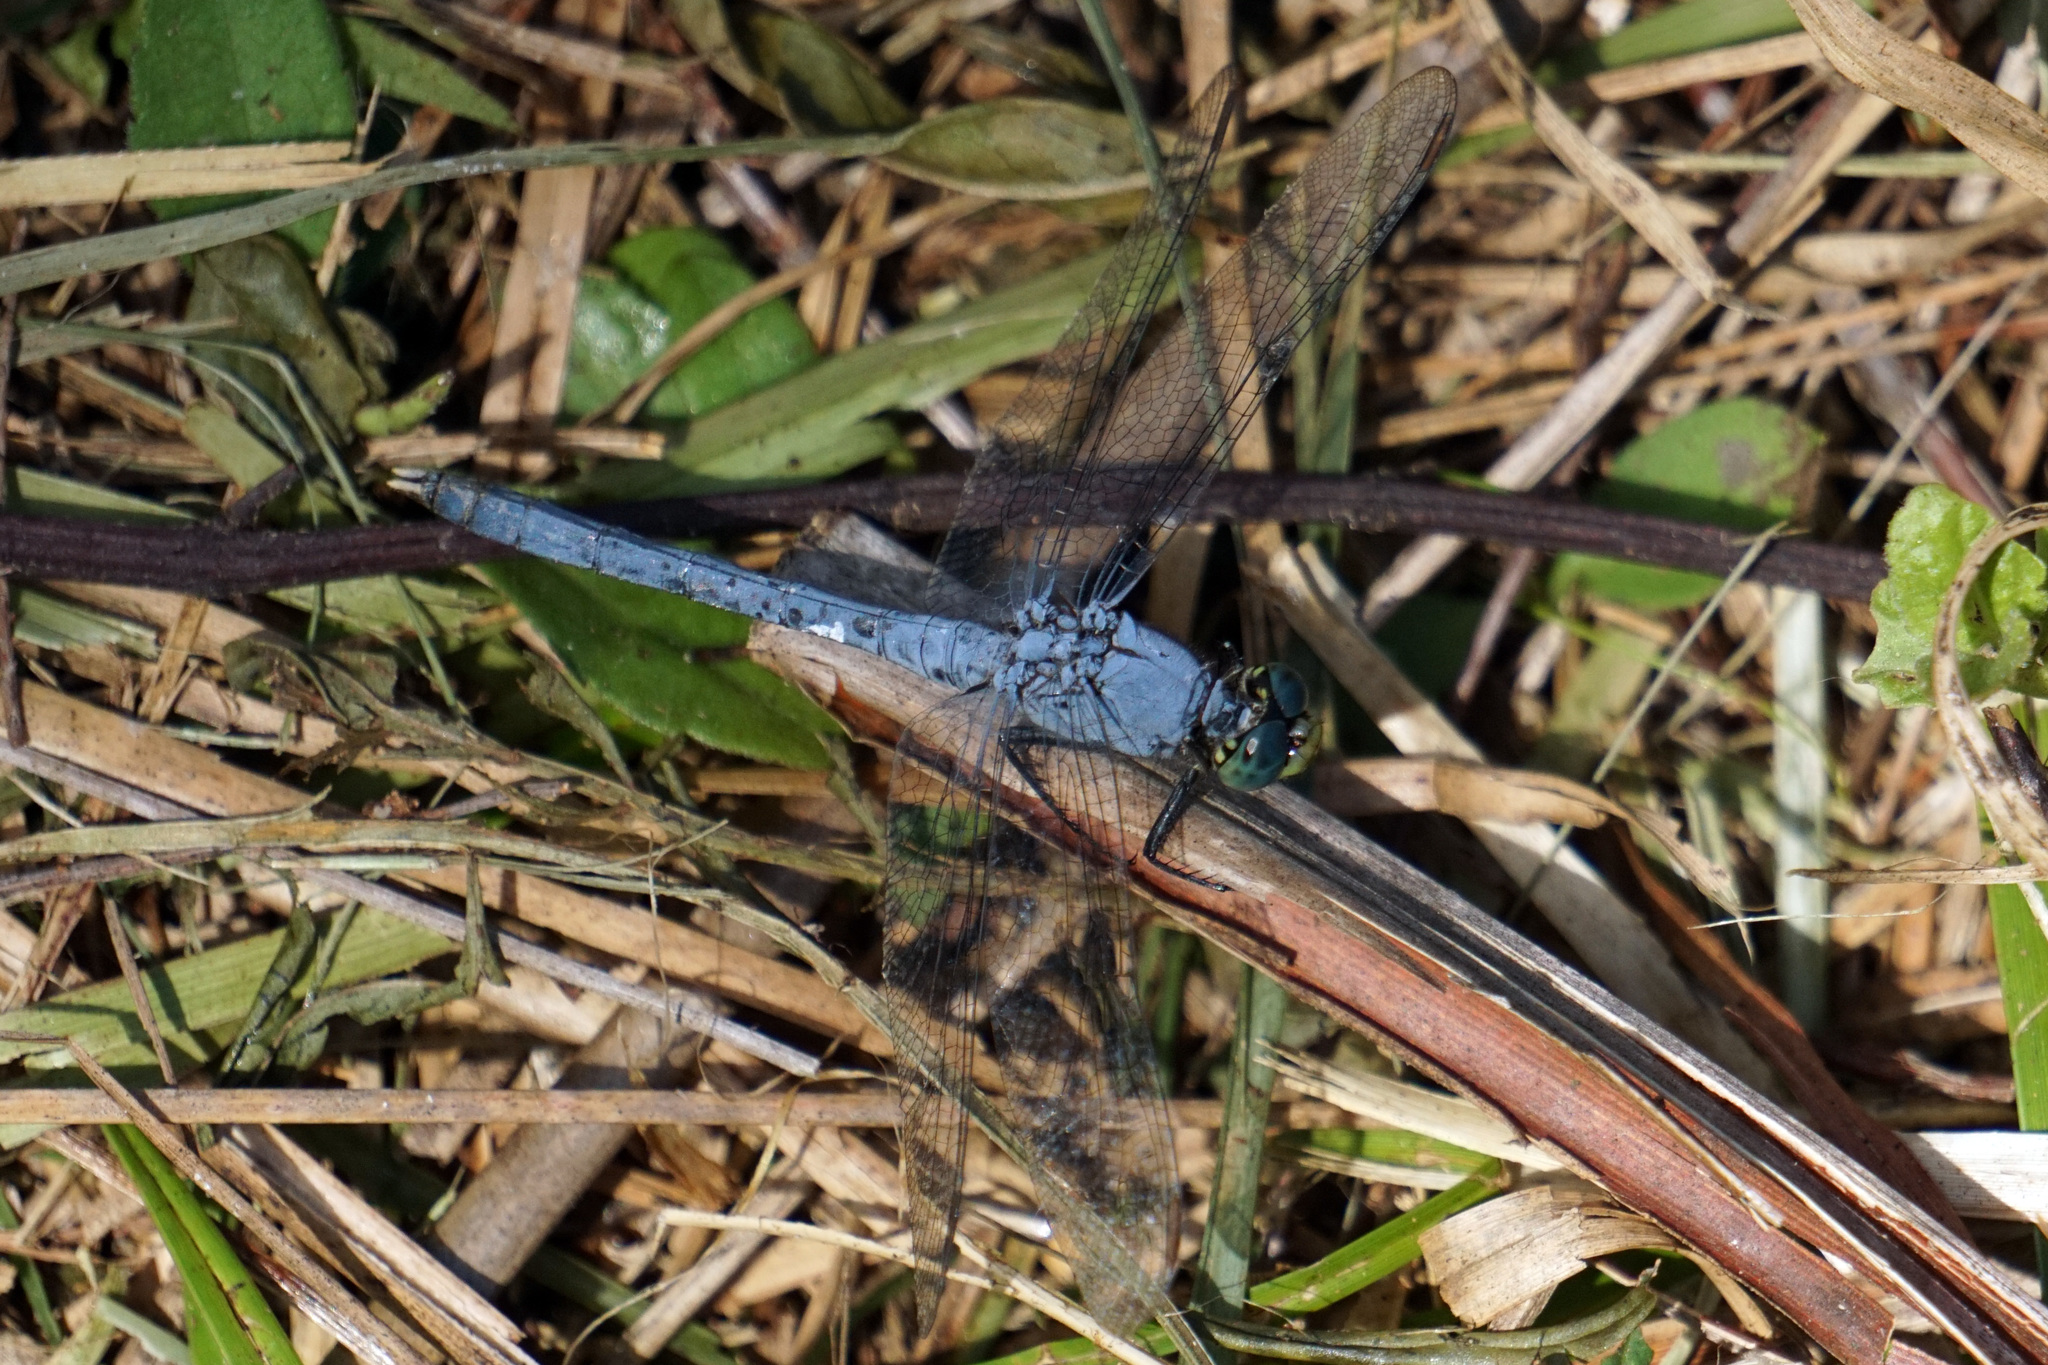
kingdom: Animalia
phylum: Arthropoda
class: Insecta
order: Odonata
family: Libellulidae
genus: Erythemis
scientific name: Erythemis simplicicollis
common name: Eastern pondhawk
